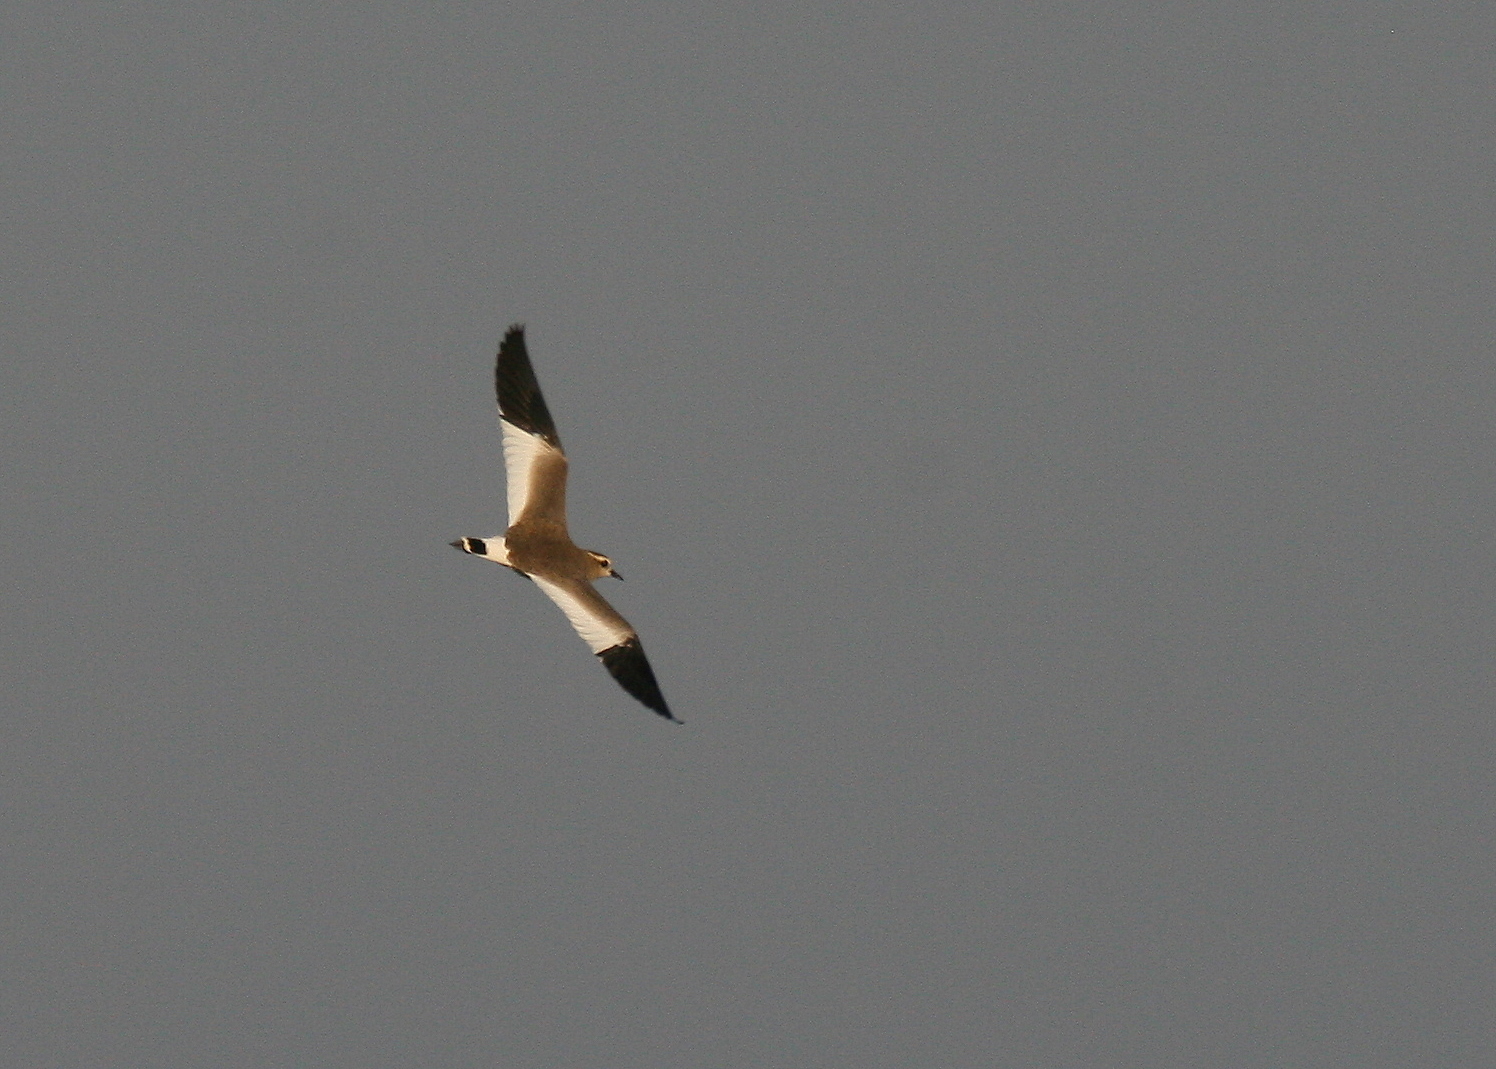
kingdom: Animalia
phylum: Chordata
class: Aves
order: Charadriiformes
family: Charadriidae
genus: Vanellus
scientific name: Vanellus gregarius
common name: Sociable lapwing
